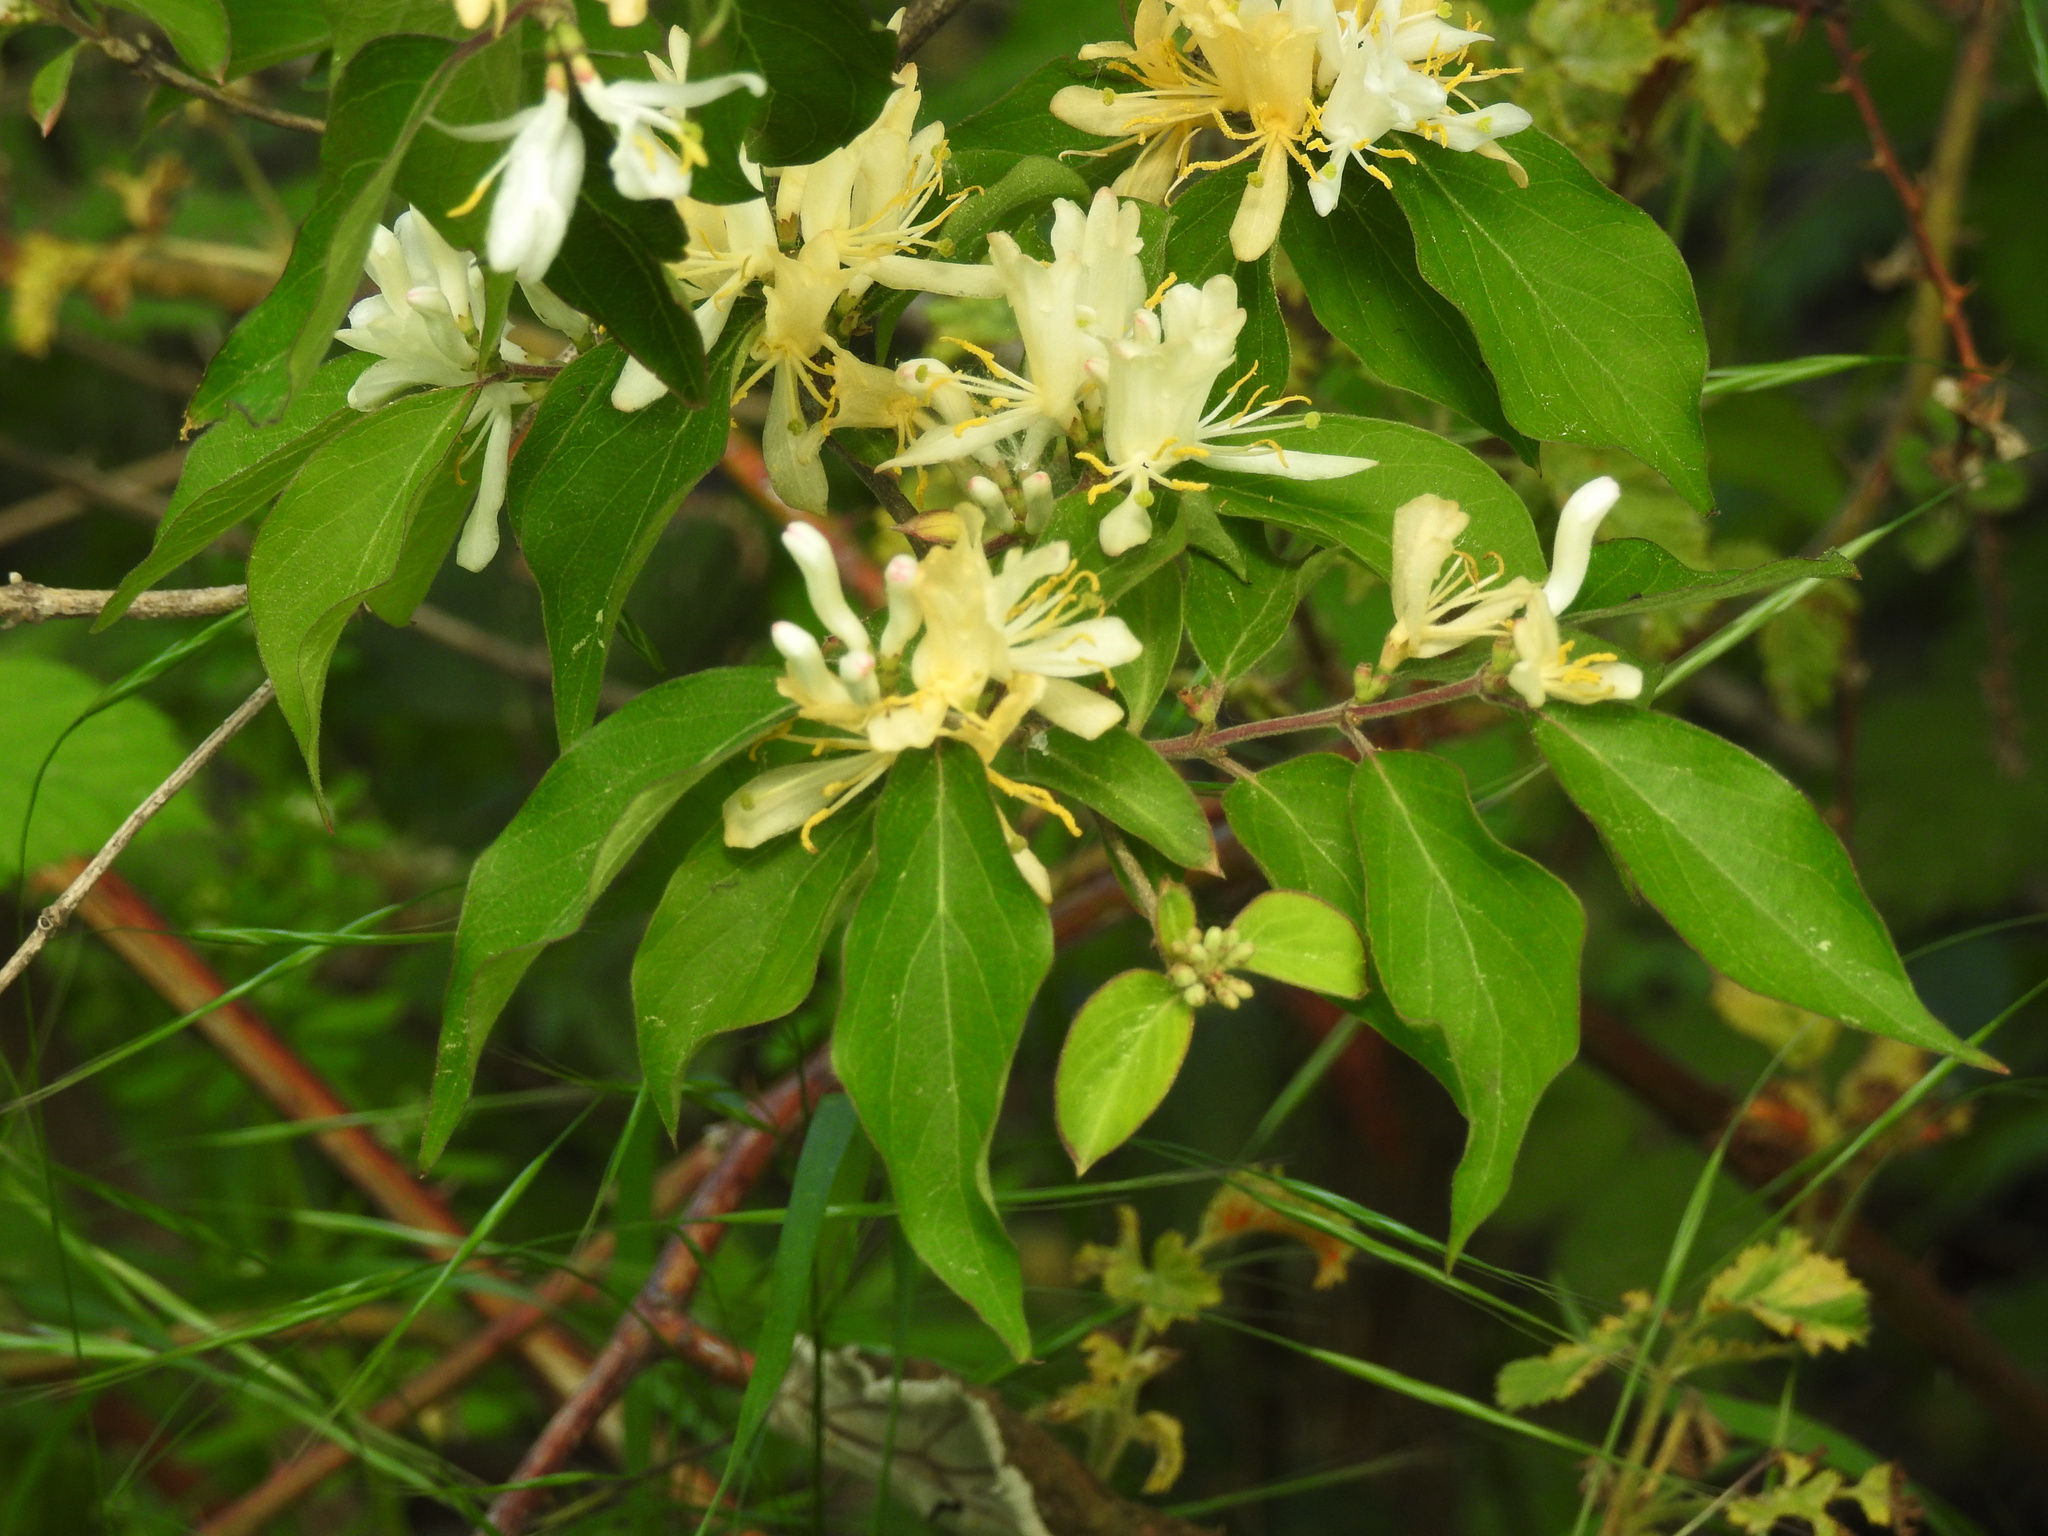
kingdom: Plantae
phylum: Tracheophyta
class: Magnoliopsida
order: Dipsacales
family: Caprifoliaceae
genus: Lonicera
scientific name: Lonicera maackii
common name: Amur honeysuckle
